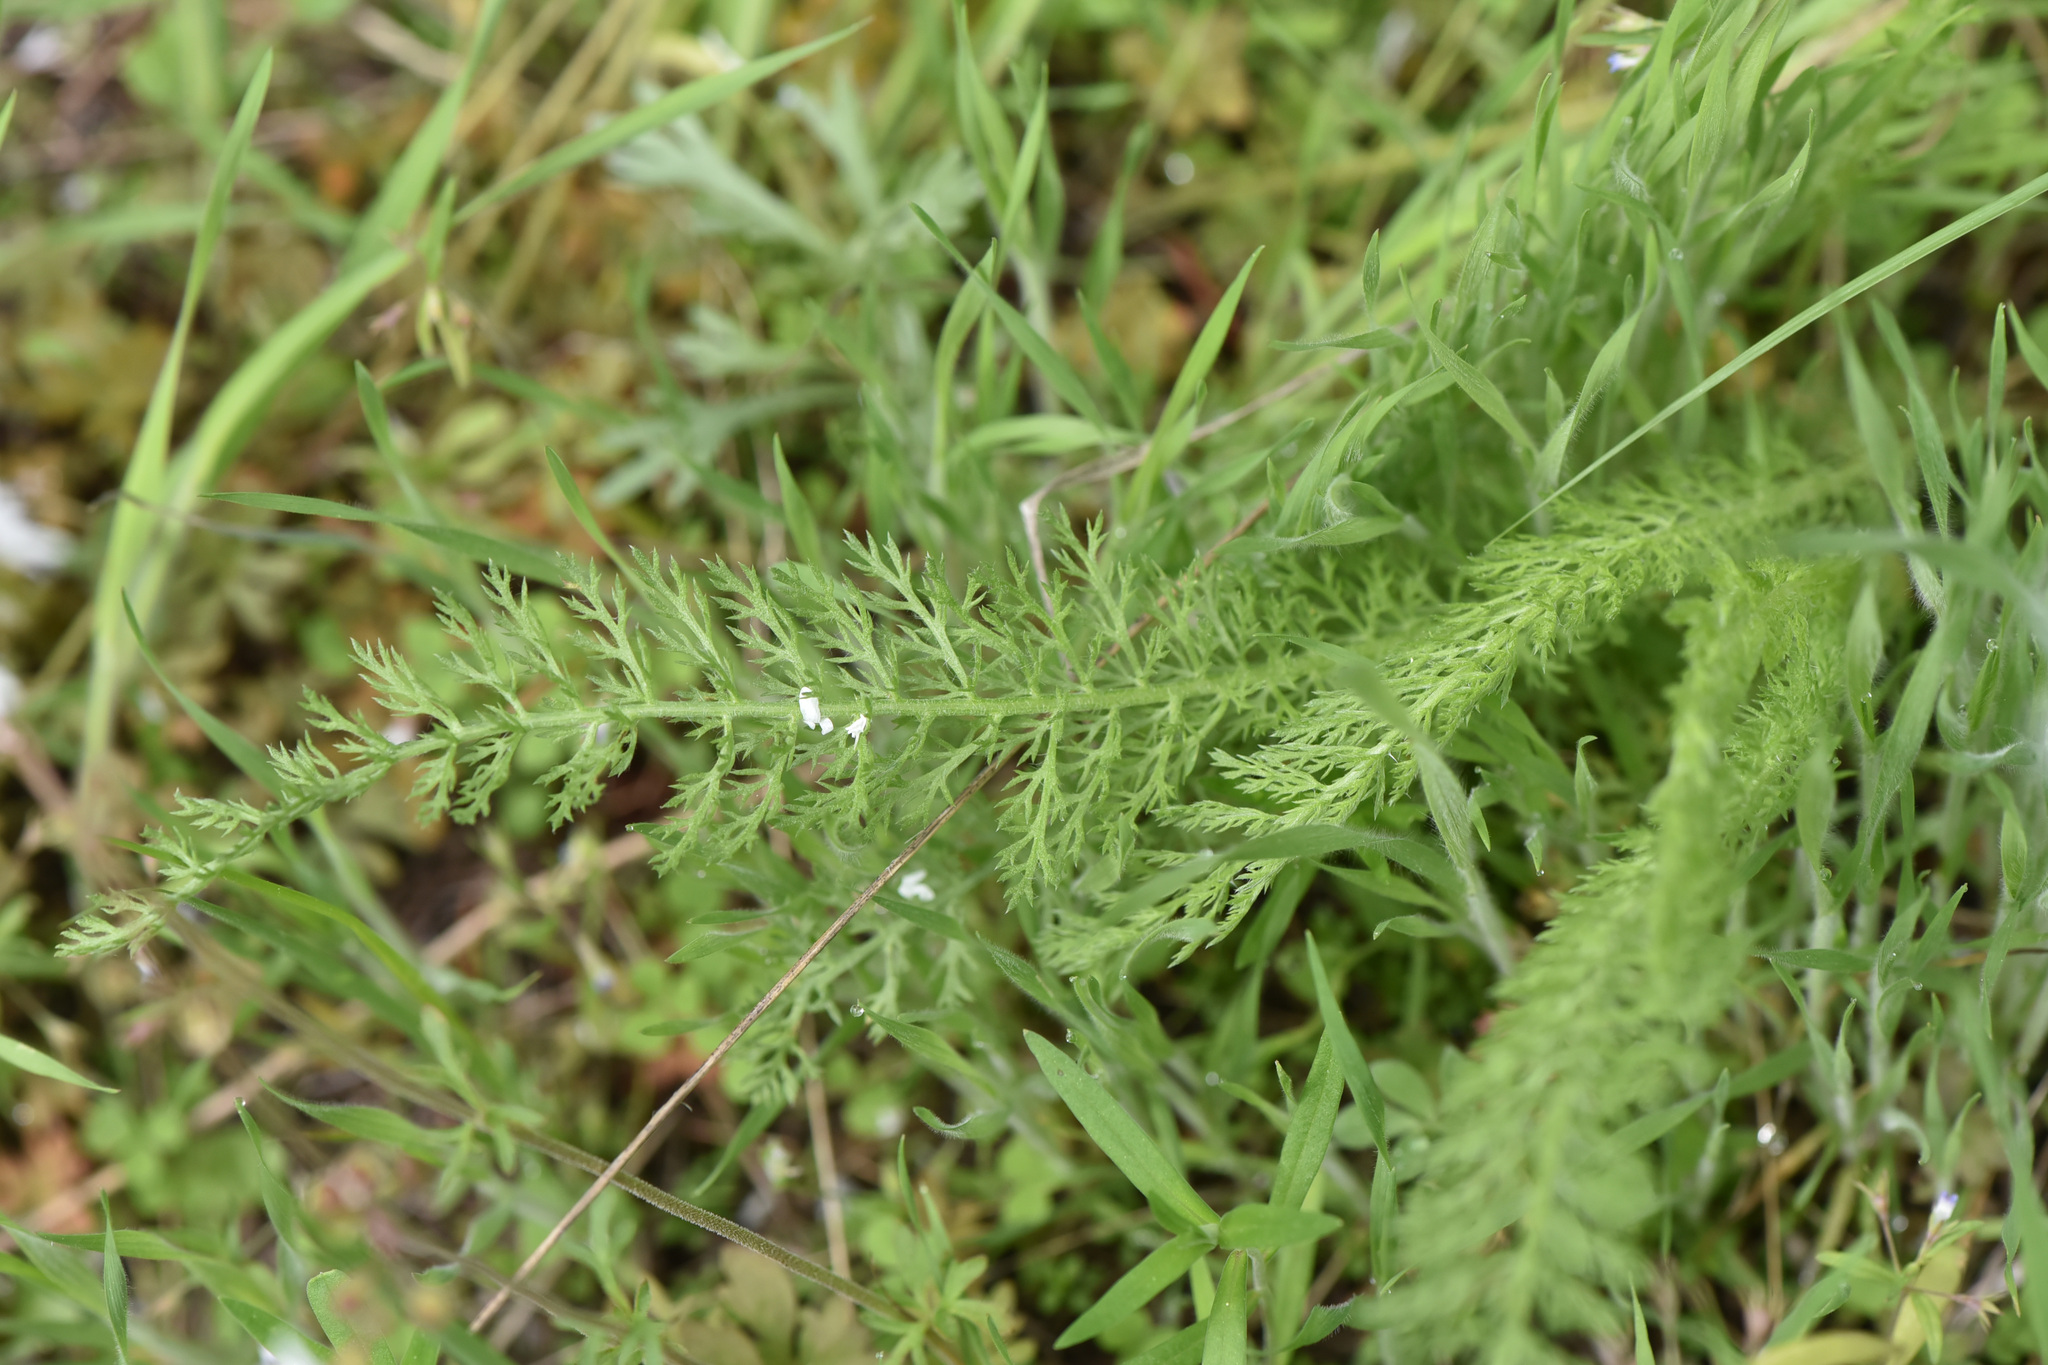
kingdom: Plantae
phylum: Tracheophyta
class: Magnoliopsida
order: Asterales
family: Asteraceae
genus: Achillea
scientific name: Achillea millefolium
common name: Yarrow
